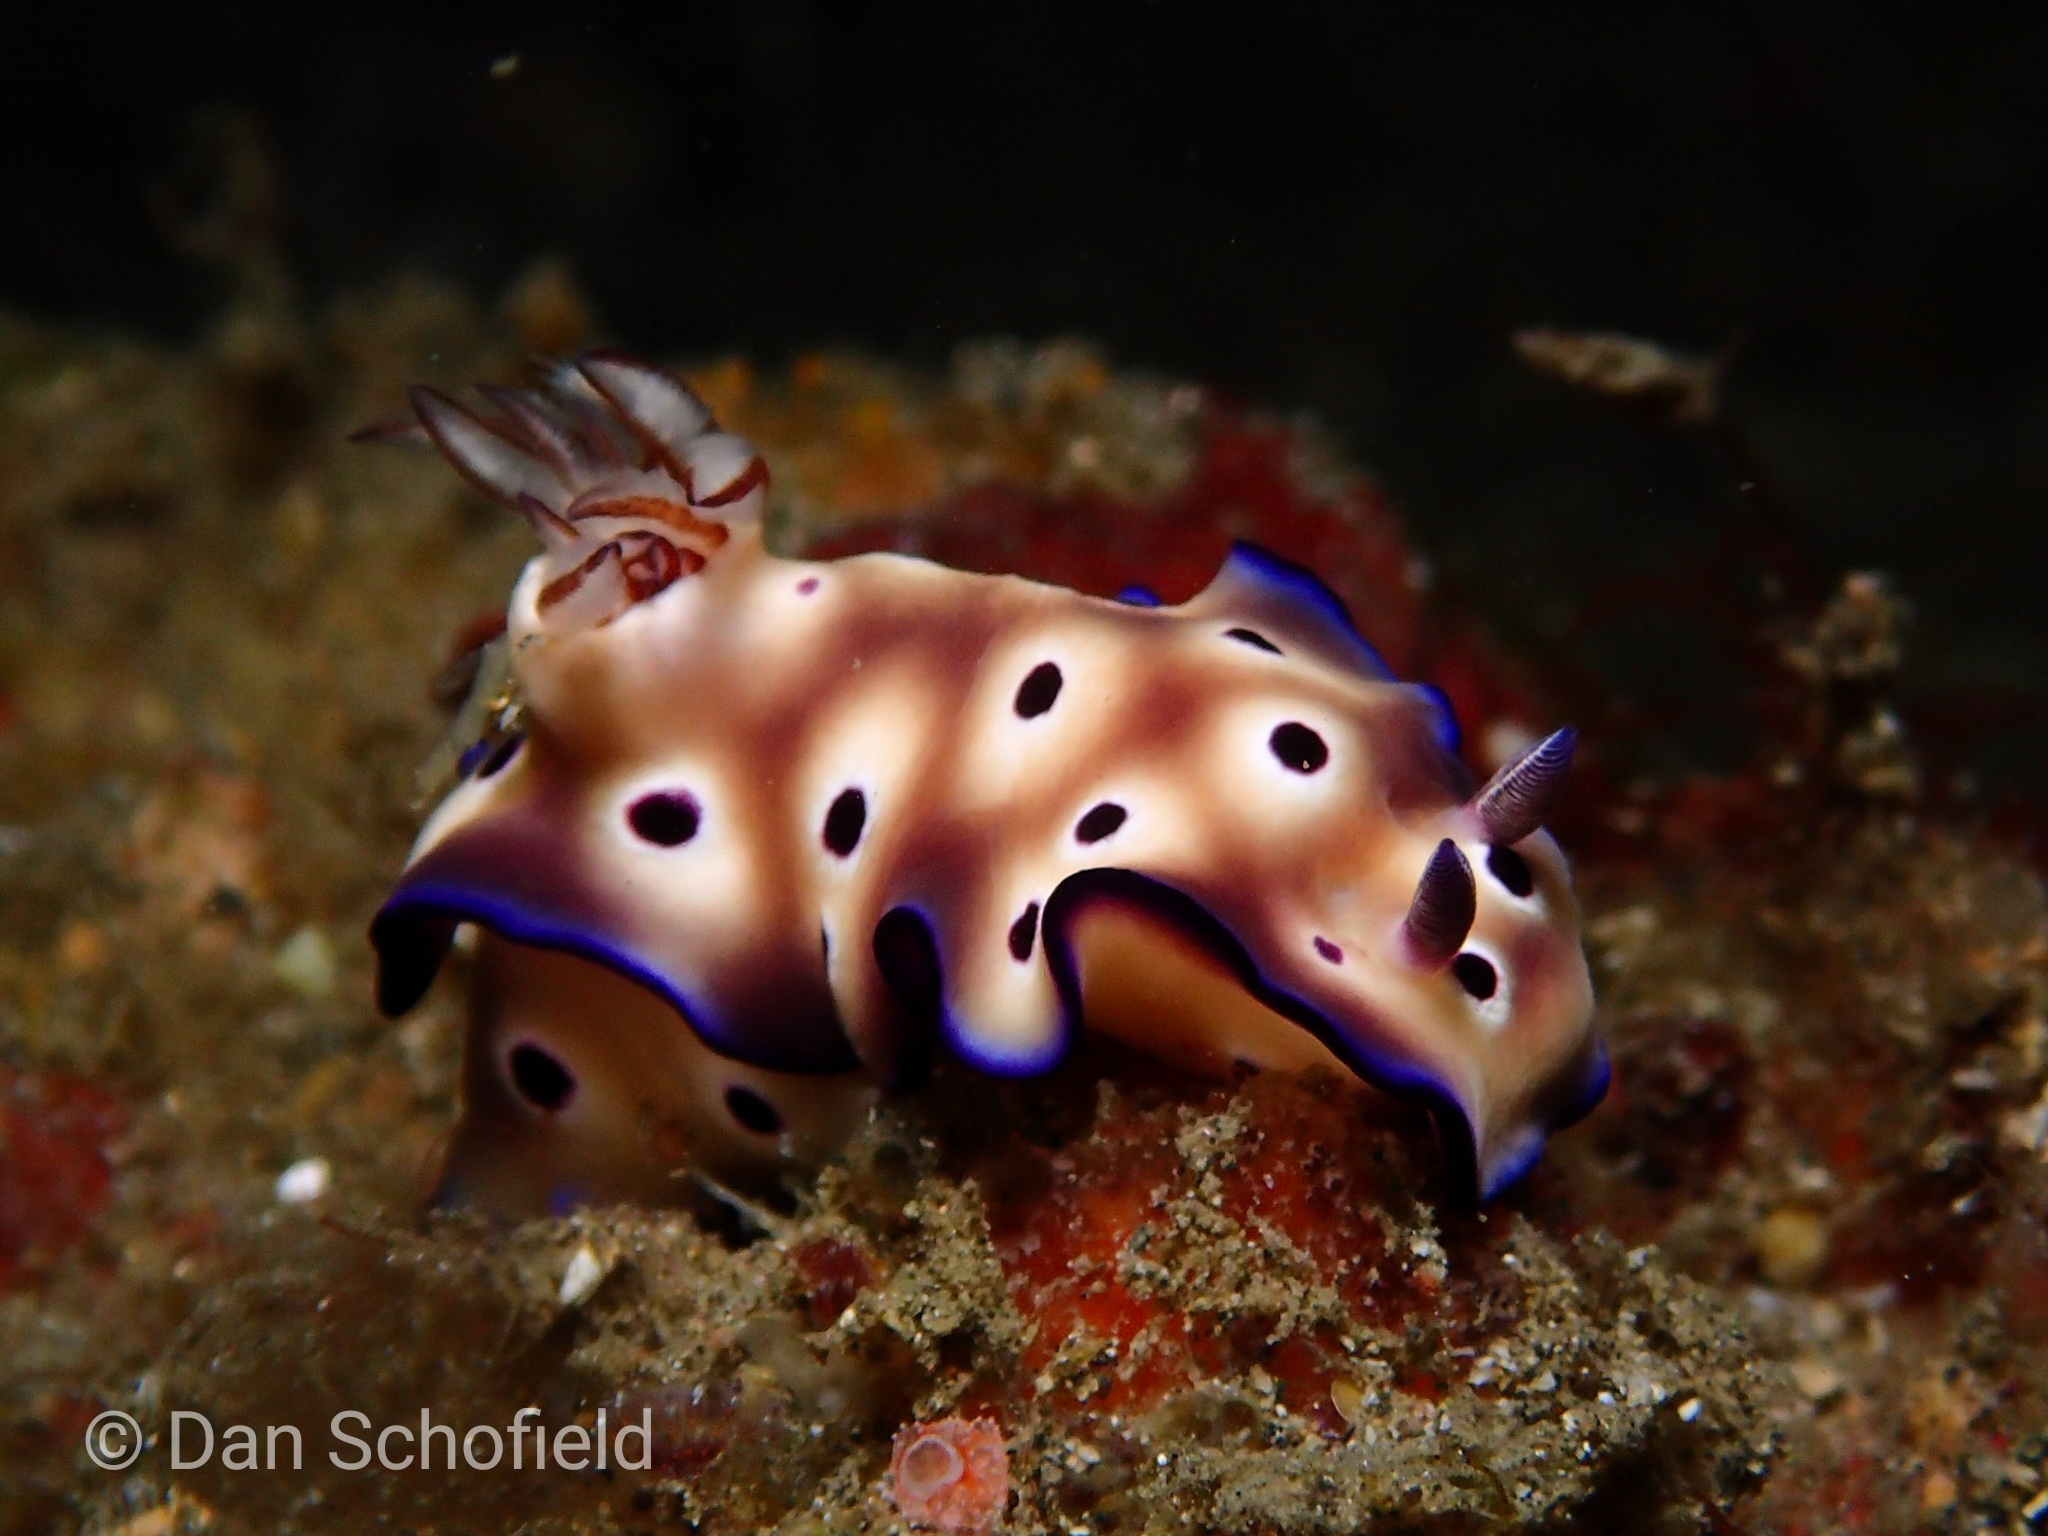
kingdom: Animalia
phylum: Mollusca
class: Gastropoda
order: Nudibranchia
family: Chromodorididae
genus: Hypselodoris
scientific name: Hypselodoris tryoni
